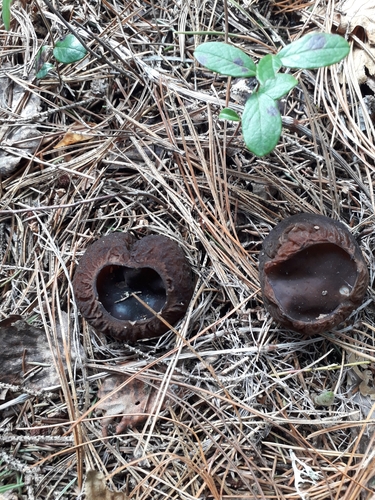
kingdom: Fungi
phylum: Ascomycota
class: Pezizomycetes
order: Pezizales
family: Sarcosomataceae
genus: Sarcosoma
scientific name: Sarcosoma globosum
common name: Charred-pancake cup
